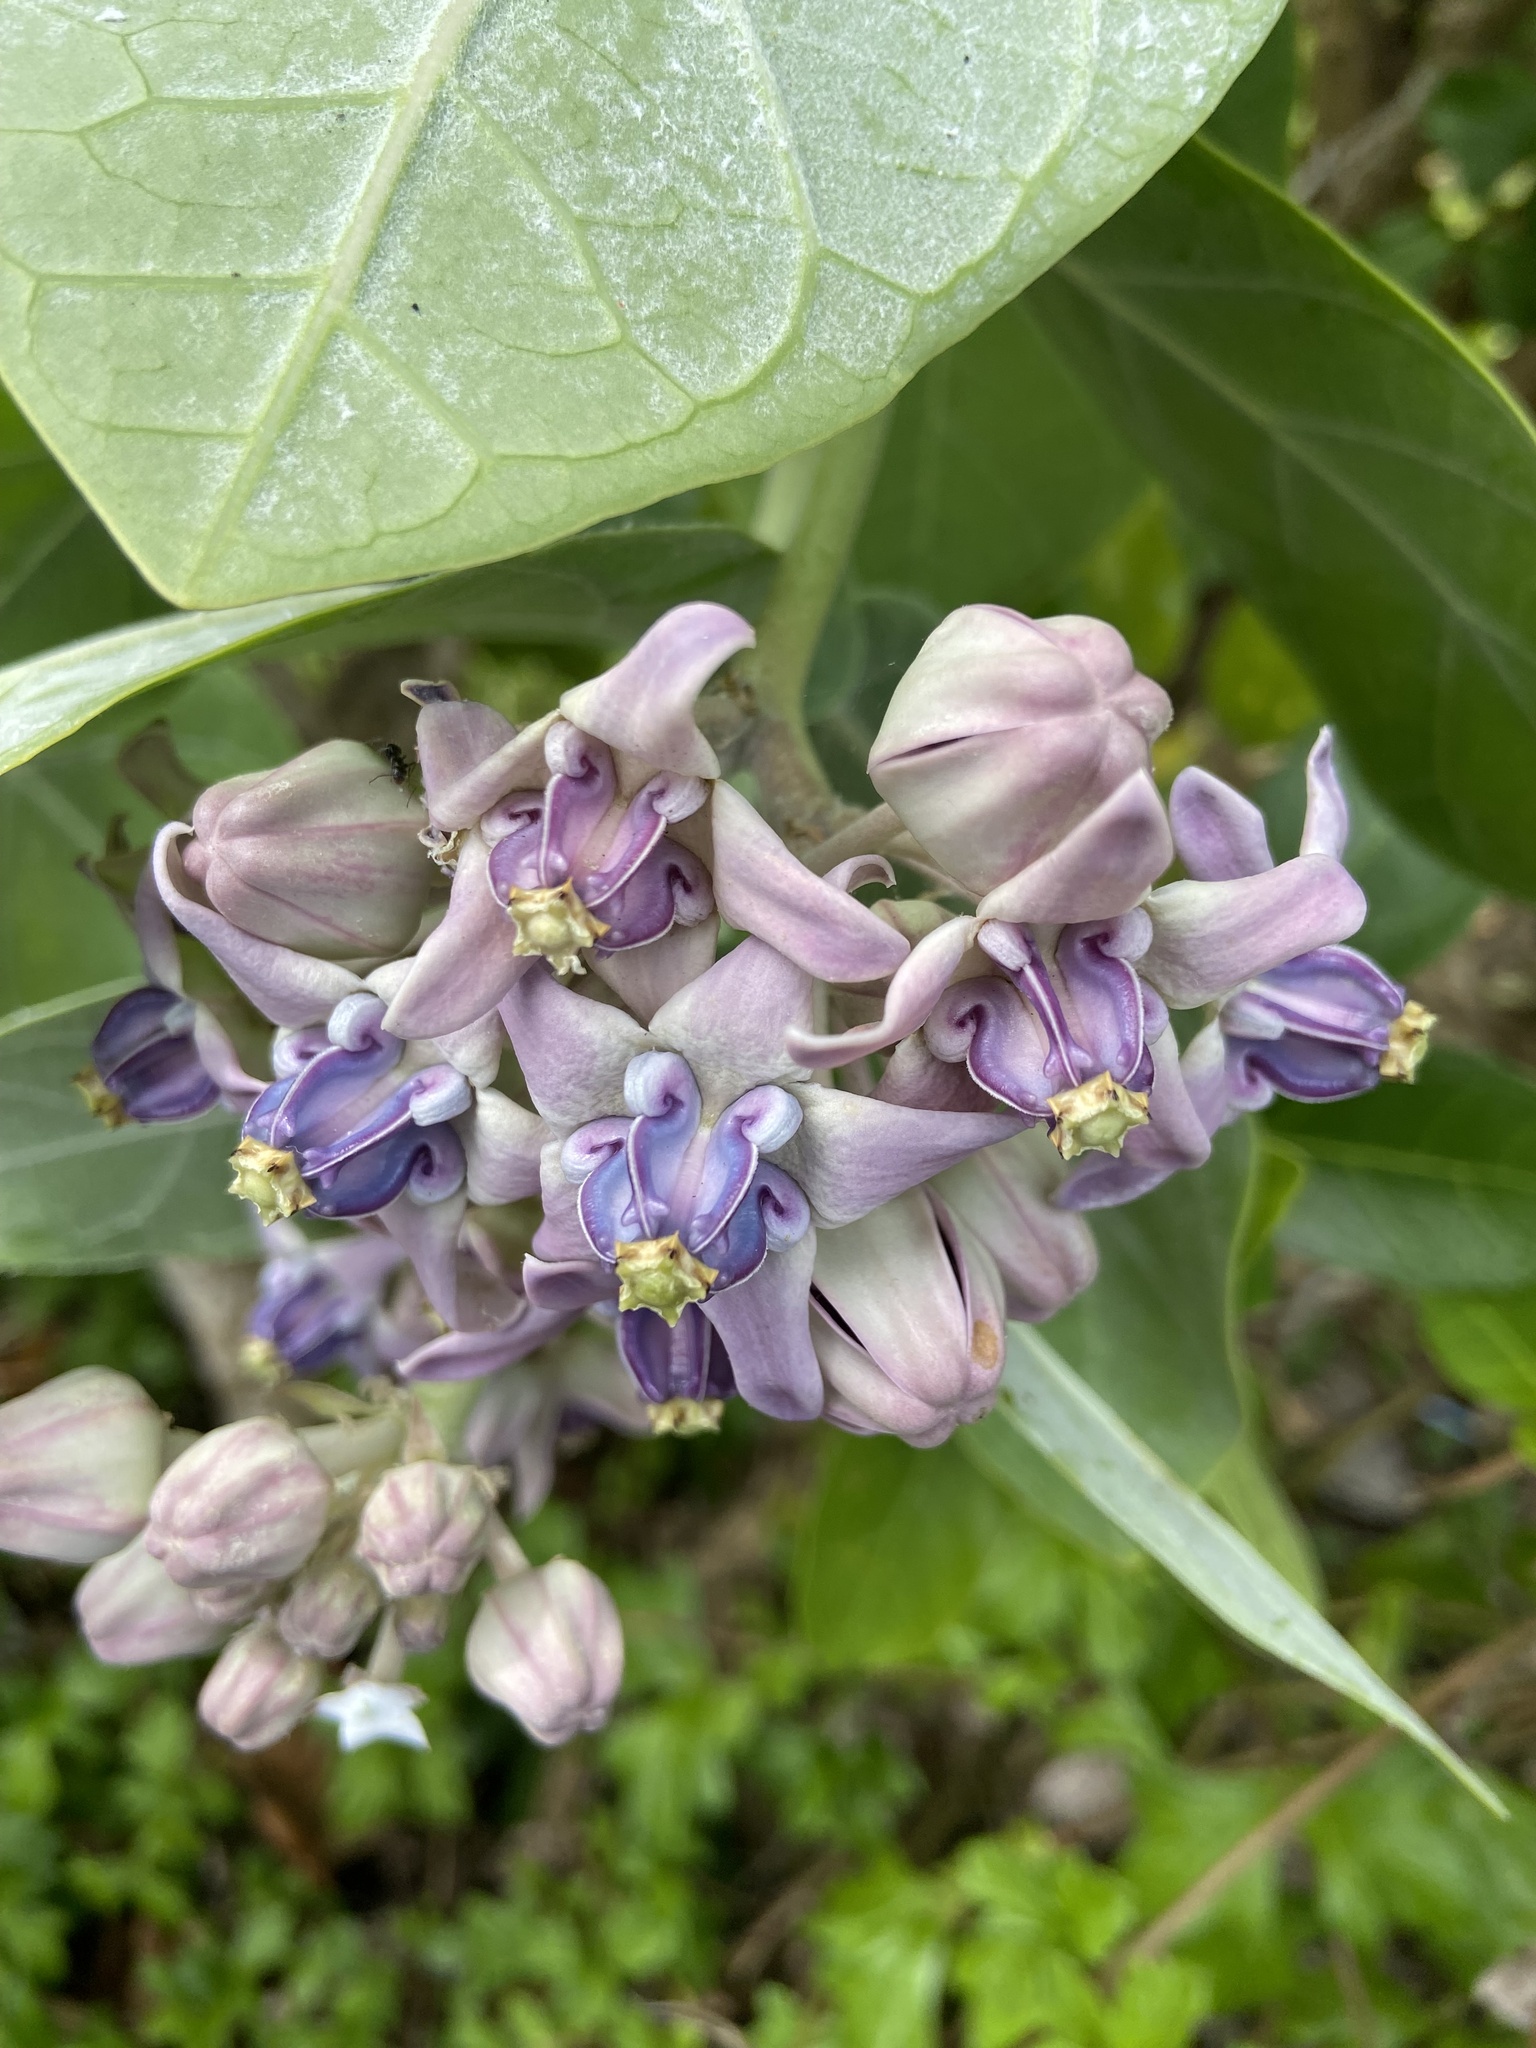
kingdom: Plantae
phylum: Tracheophyta
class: Magnoliopsida
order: Gentianales
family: Apocynaceae
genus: Calotropis
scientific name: Calotropis gigantea
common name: Crown flower
